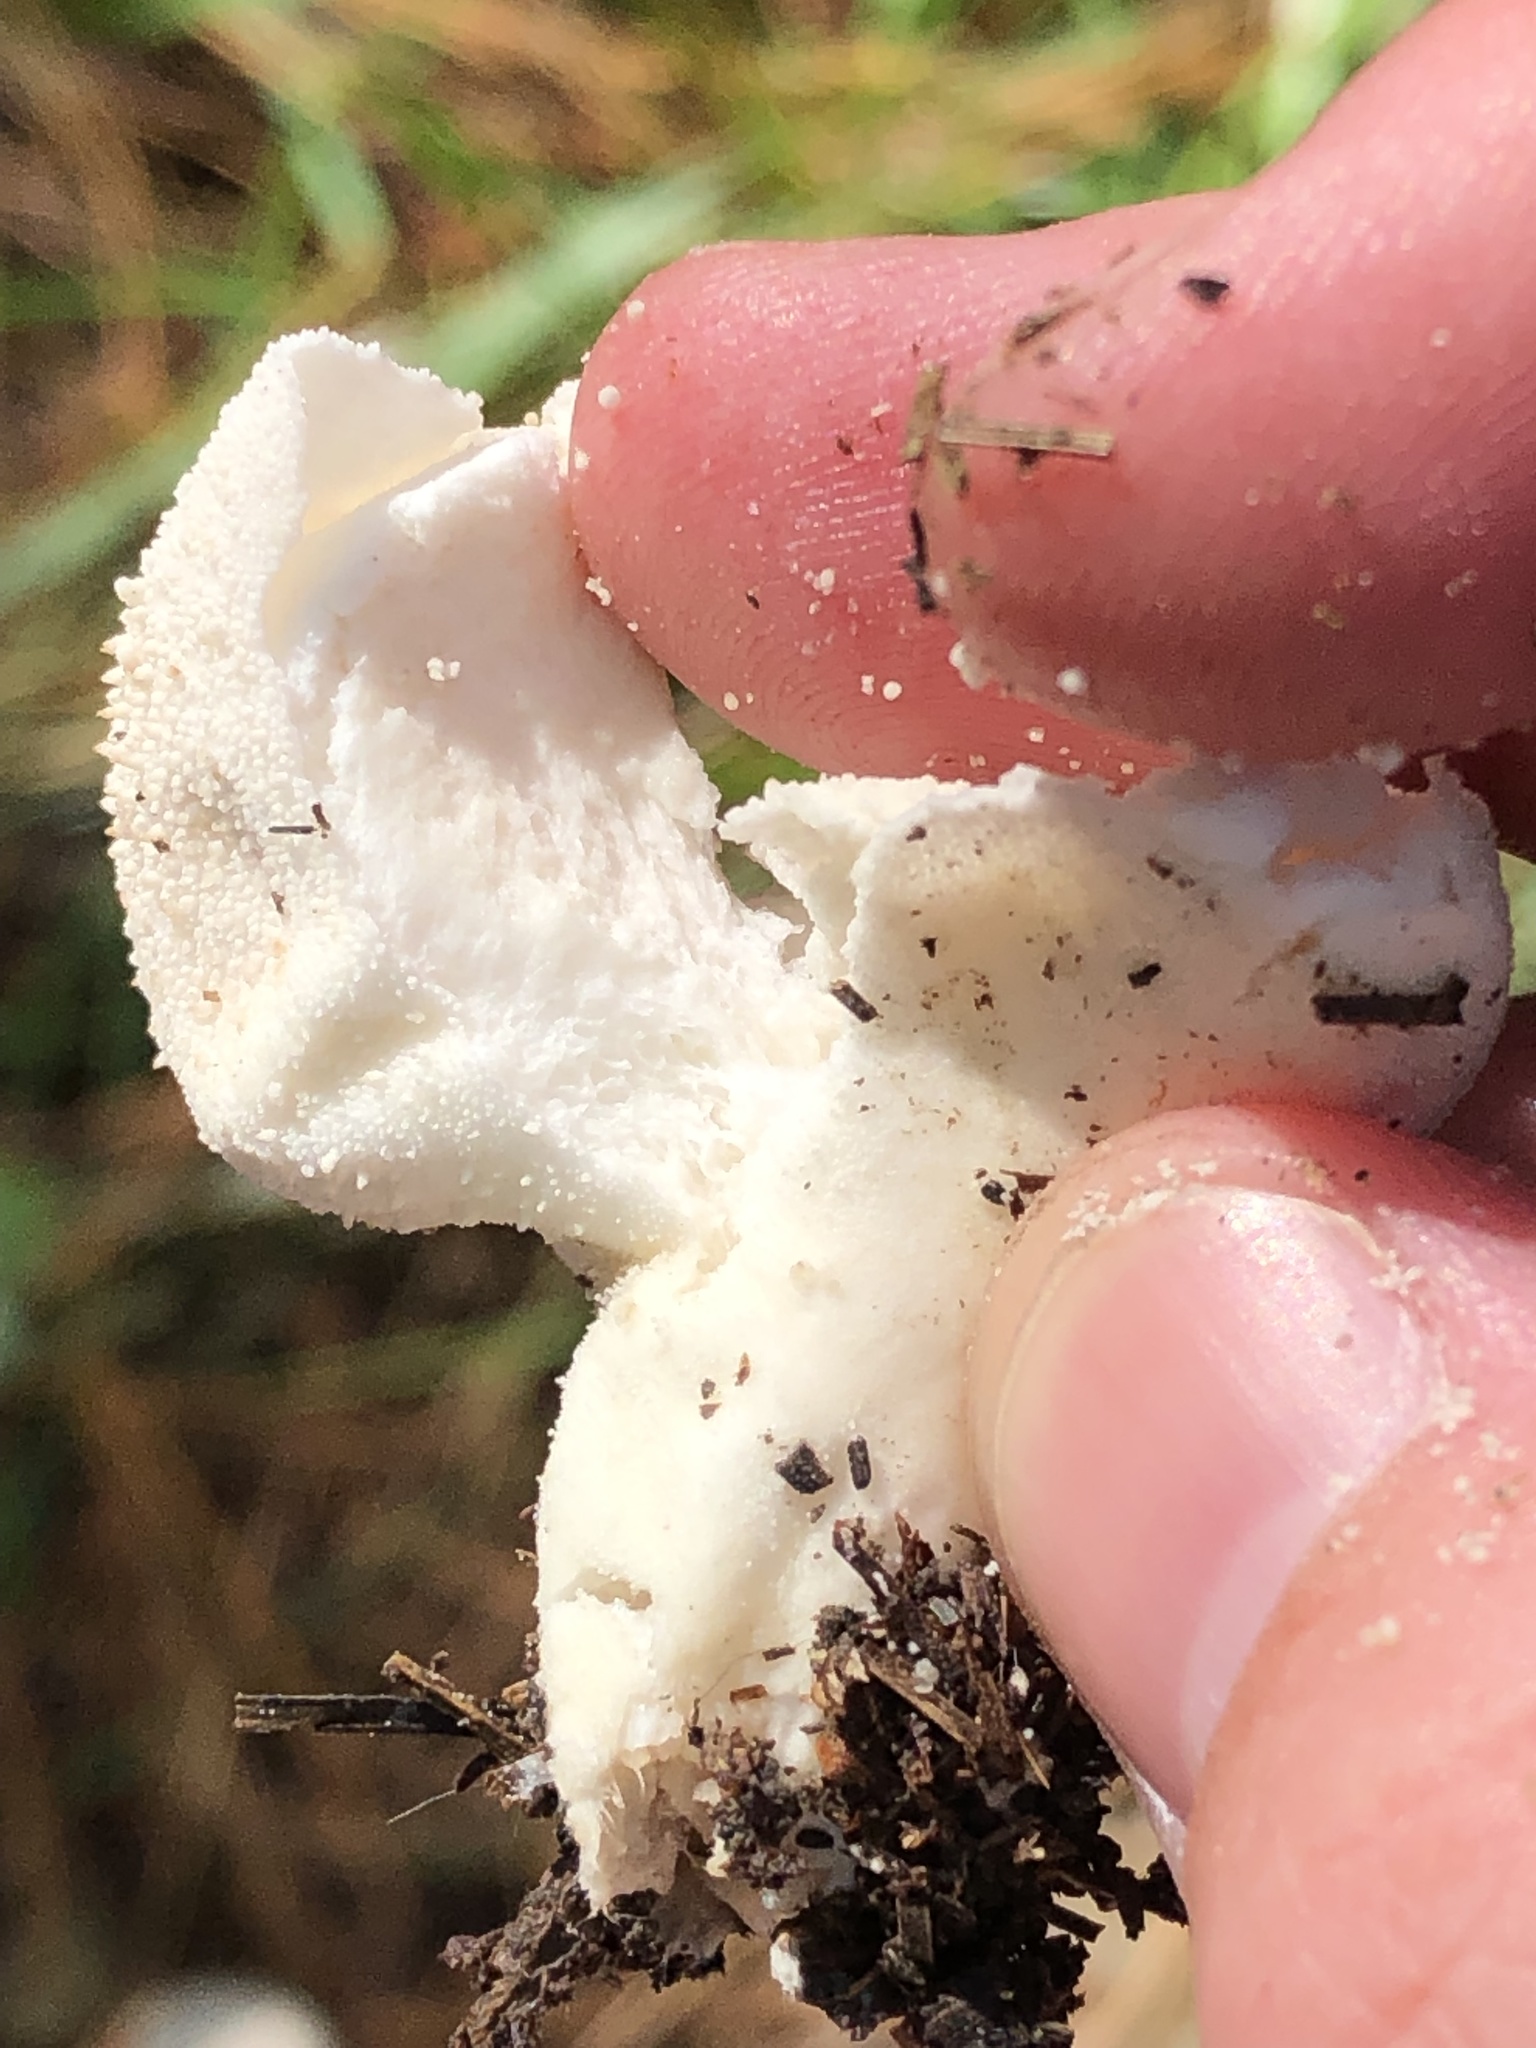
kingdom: Fungi
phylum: Basidiomycota
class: Agaricomycetes
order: Agaricales
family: Lycoperdaceae
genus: Lycoperdon
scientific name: Lycoperdon perlatum
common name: Common puffball
